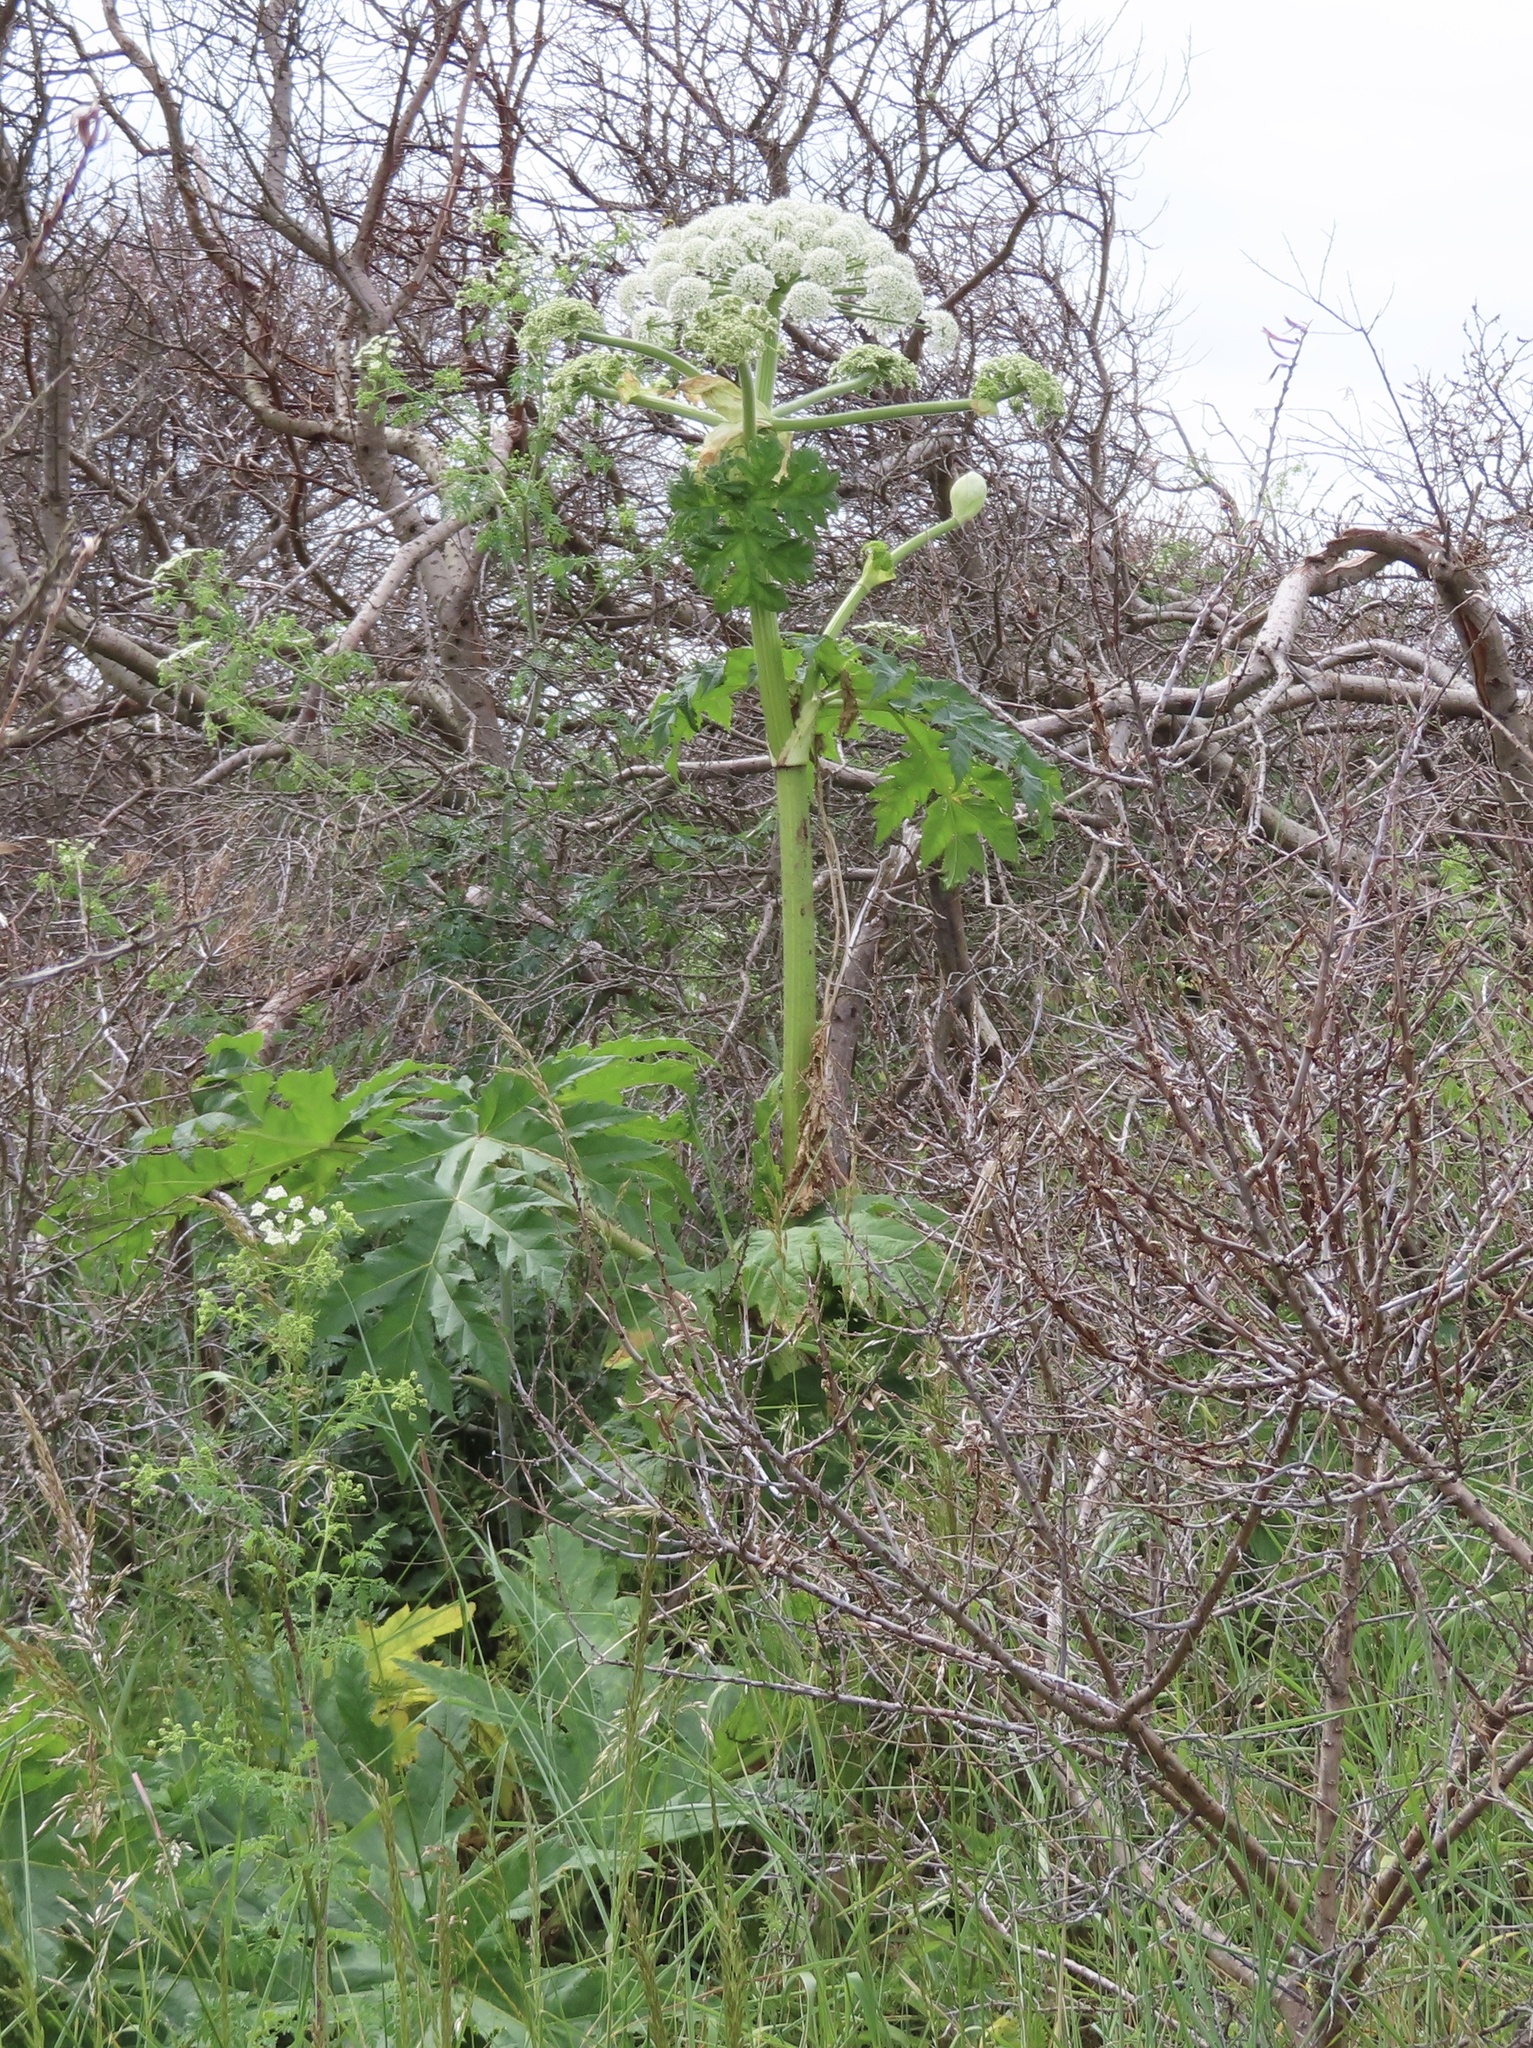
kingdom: Plantae
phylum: Tracheophyta
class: Magnoliopsida
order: Apiales
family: Apiaceae
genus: Heracleum
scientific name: Heracleum mantegazzianum
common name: Giant hogweed
